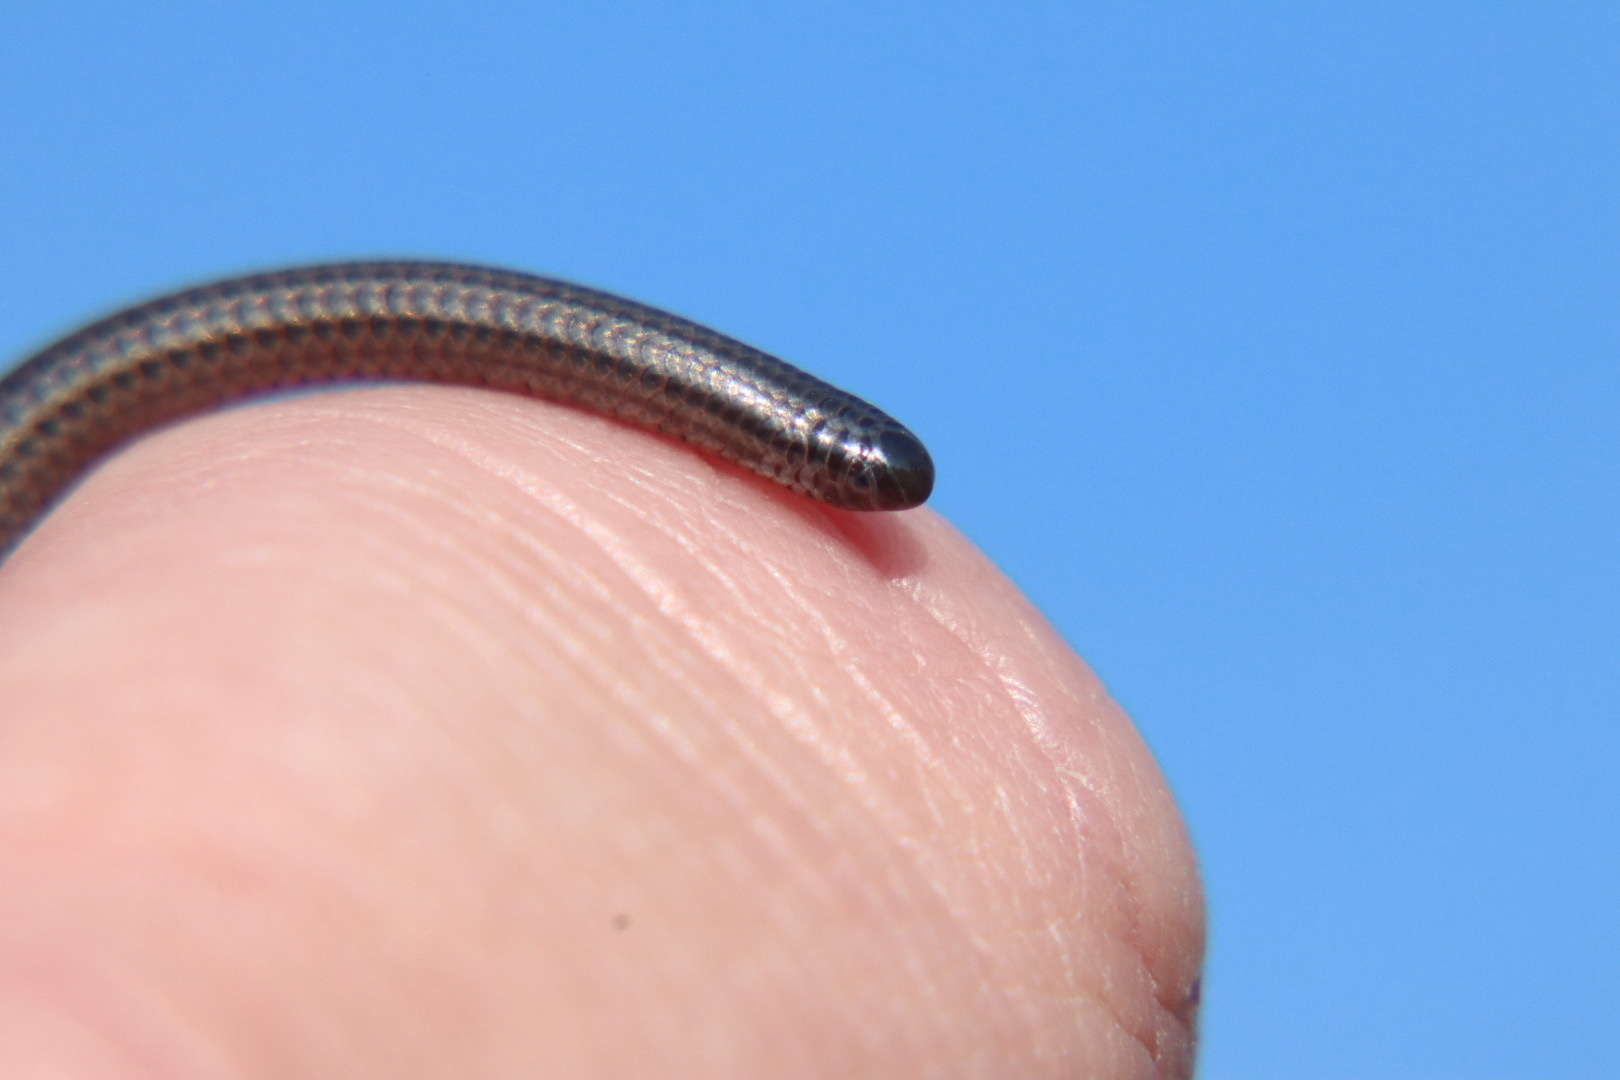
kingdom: Animalia
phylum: Chordata
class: Squamata
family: Leptotyphlopidae
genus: Leptotyphlops
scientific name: Leptotyphlops distanti
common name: Distant's thread snake
